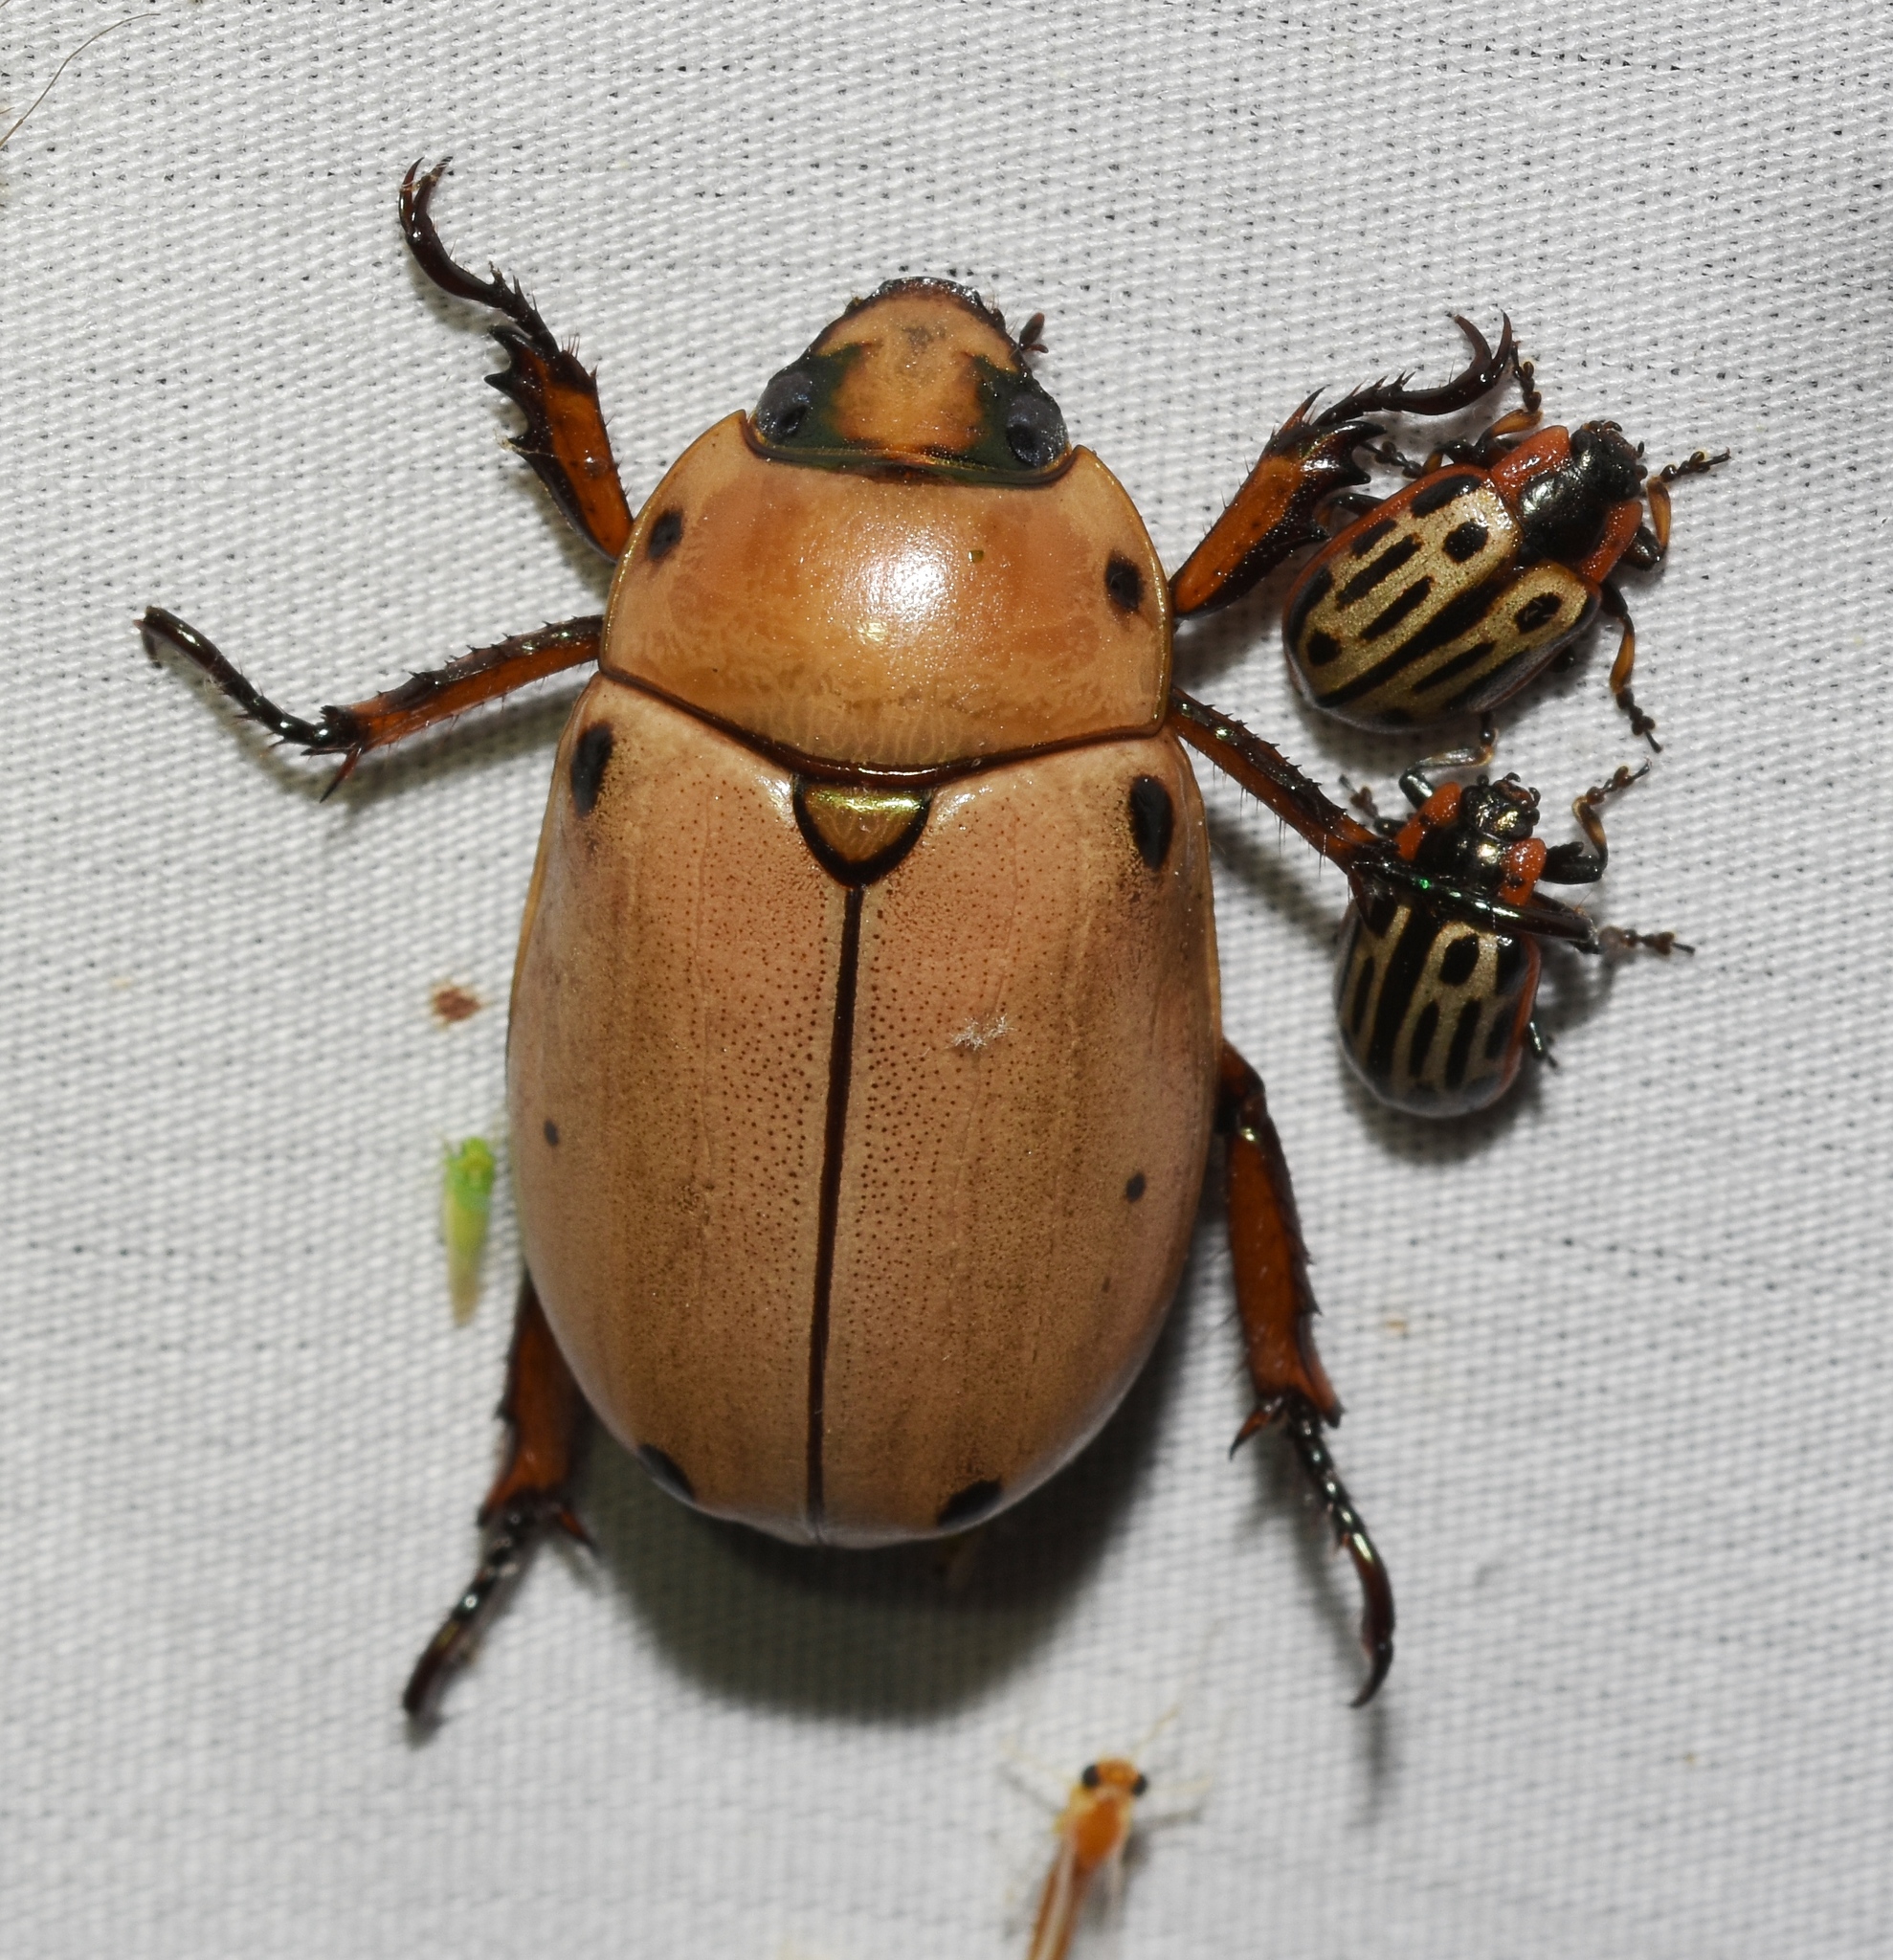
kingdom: Animalia
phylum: Arthropoda
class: Insecta
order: Coleoptera
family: Scarabaeidae
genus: Pelidnota
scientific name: Pelidnota punctata
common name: Grapevine beetle
